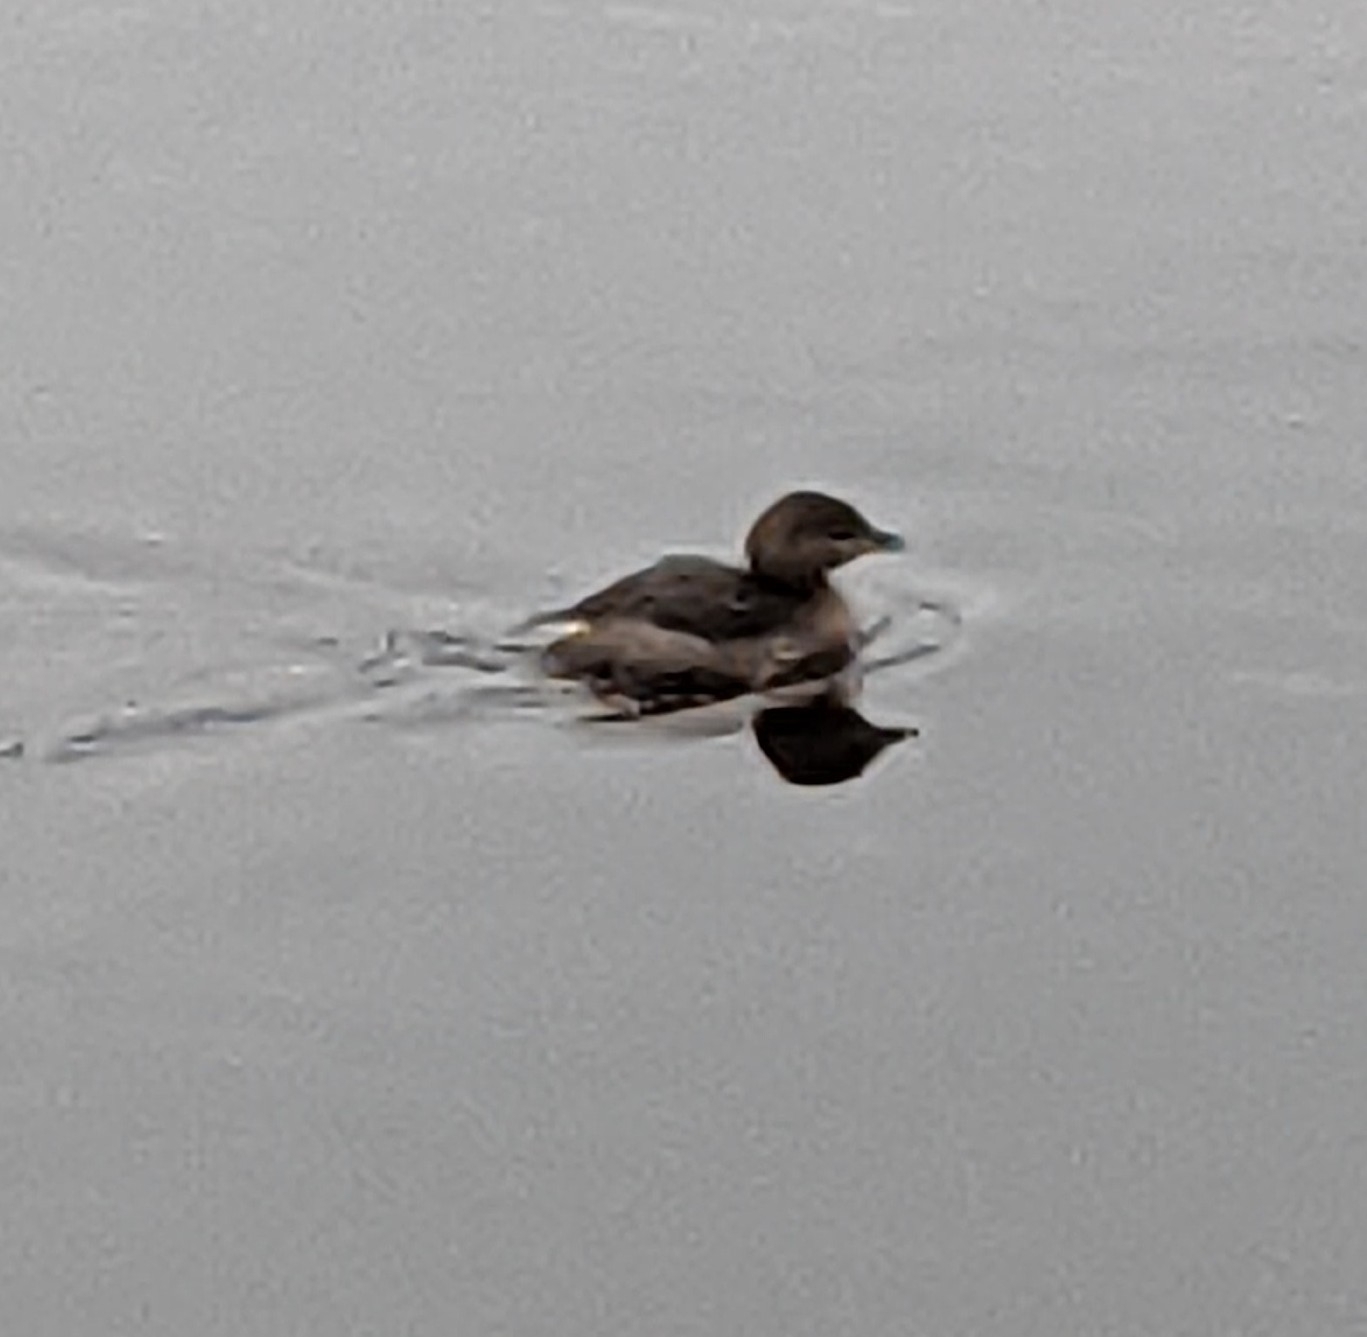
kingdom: Animalia
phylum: Chordata
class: Aves
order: Podicipediformes
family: Podicipedidae
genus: Podilymbus
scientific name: Podilymbus podiceps
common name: Pied-billed grebe
